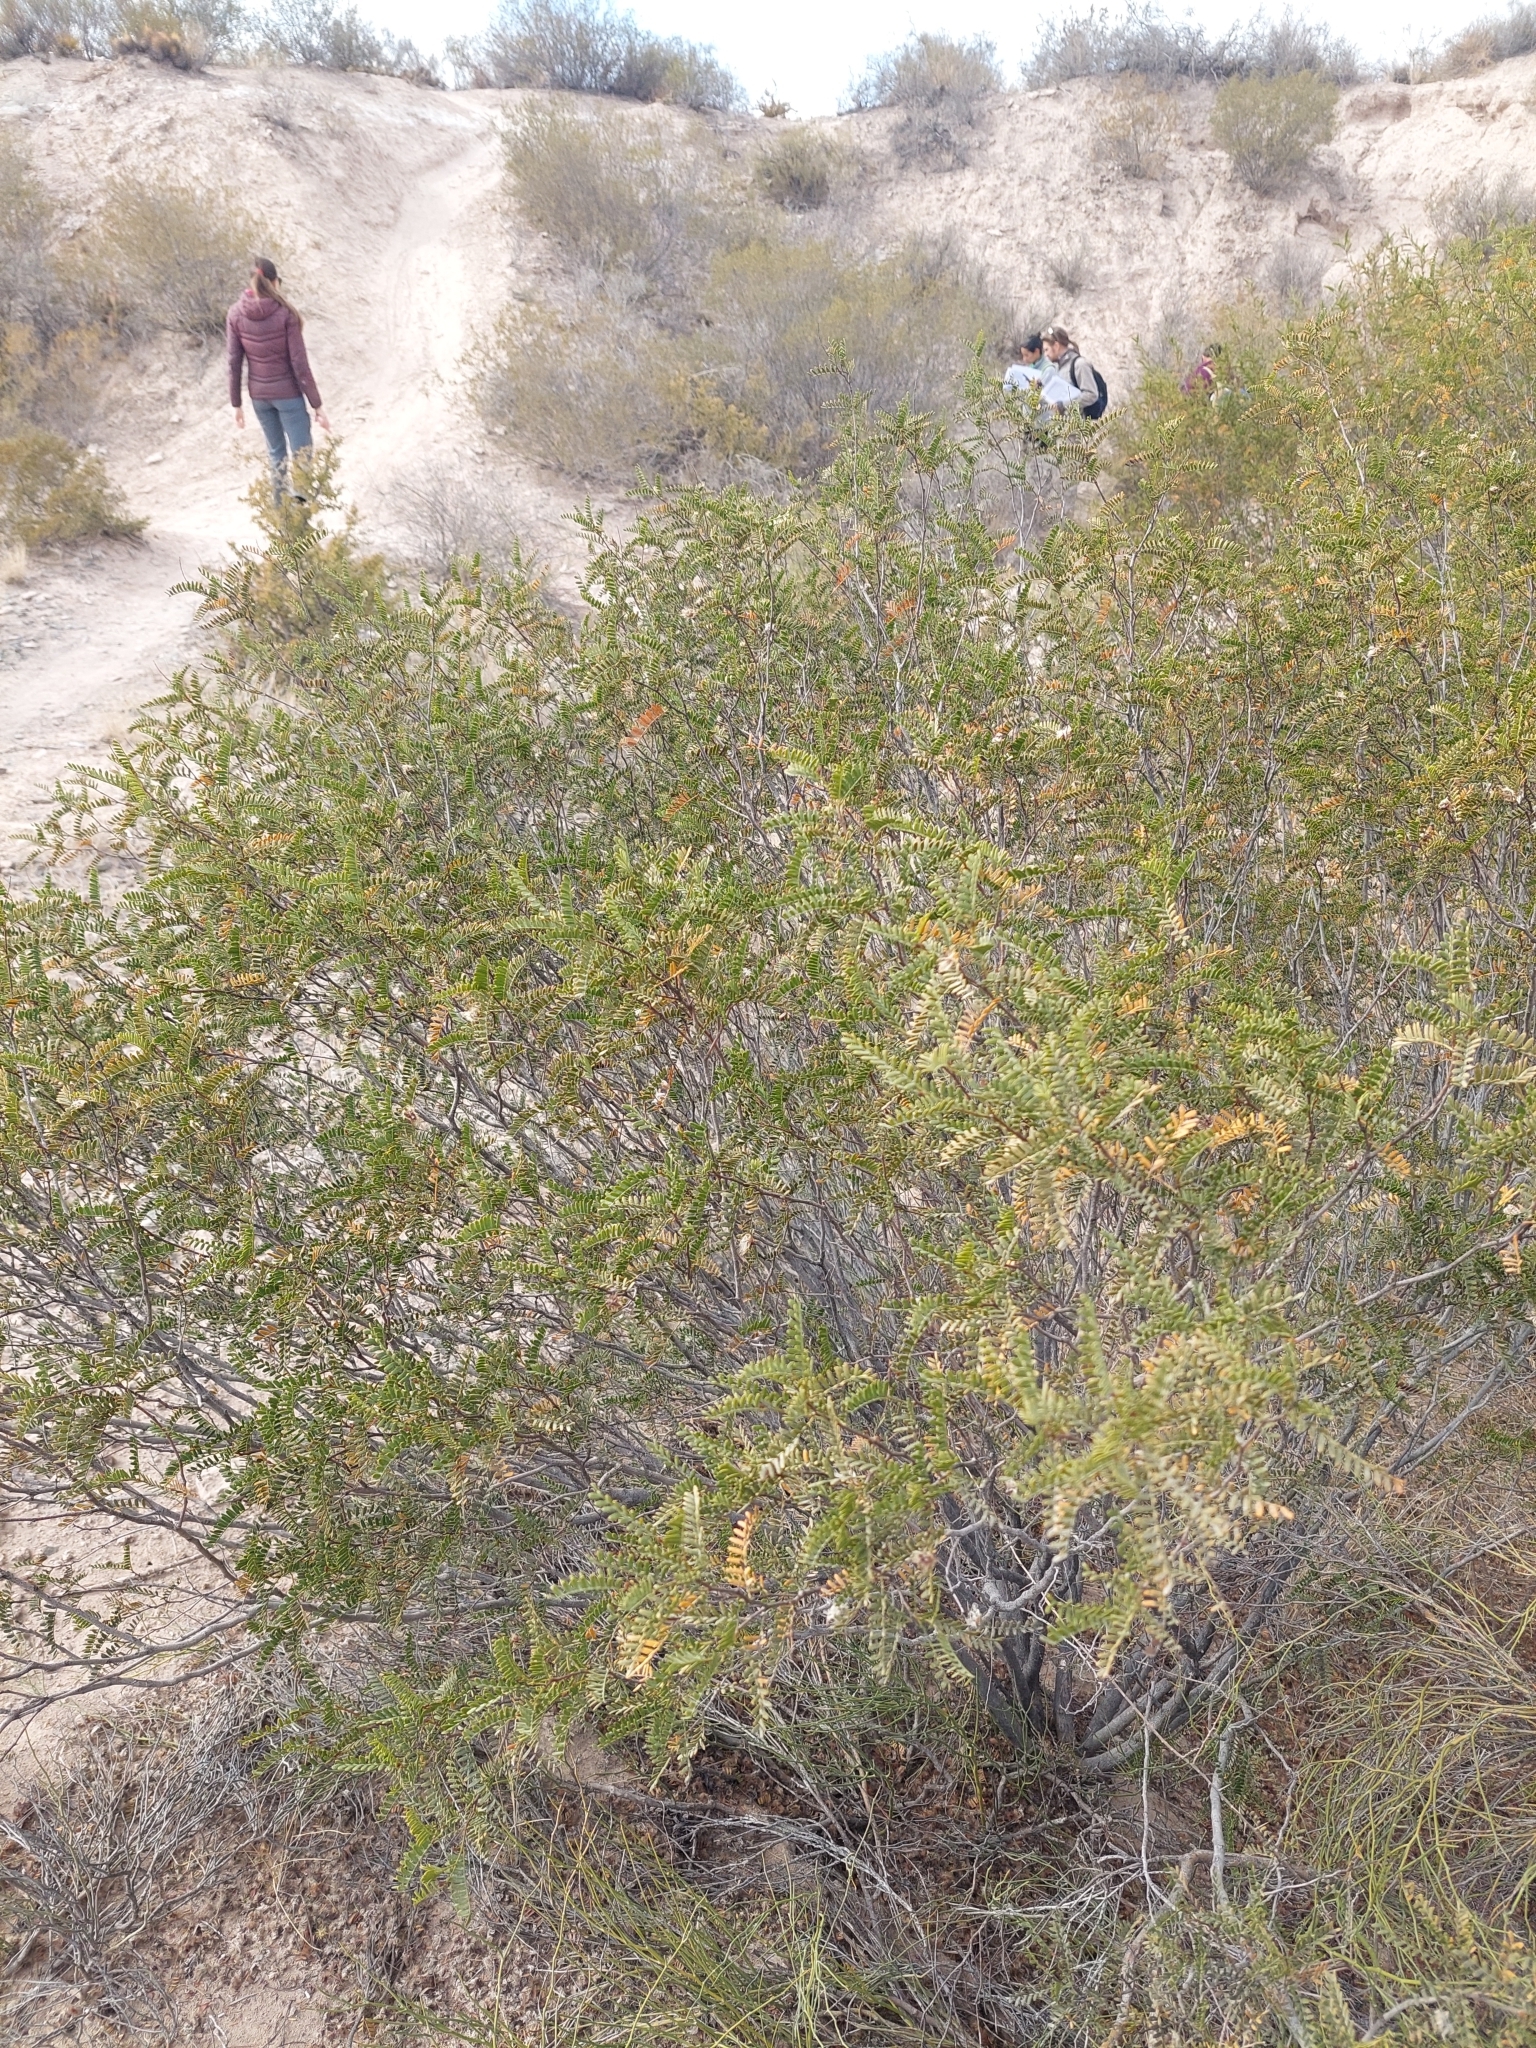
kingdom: Plantae
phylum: Tracheophyta
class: Magnoliopsida
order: Fabales
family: Fabaceae
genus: Zuccagnia
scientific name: Zuccagnia punctata
